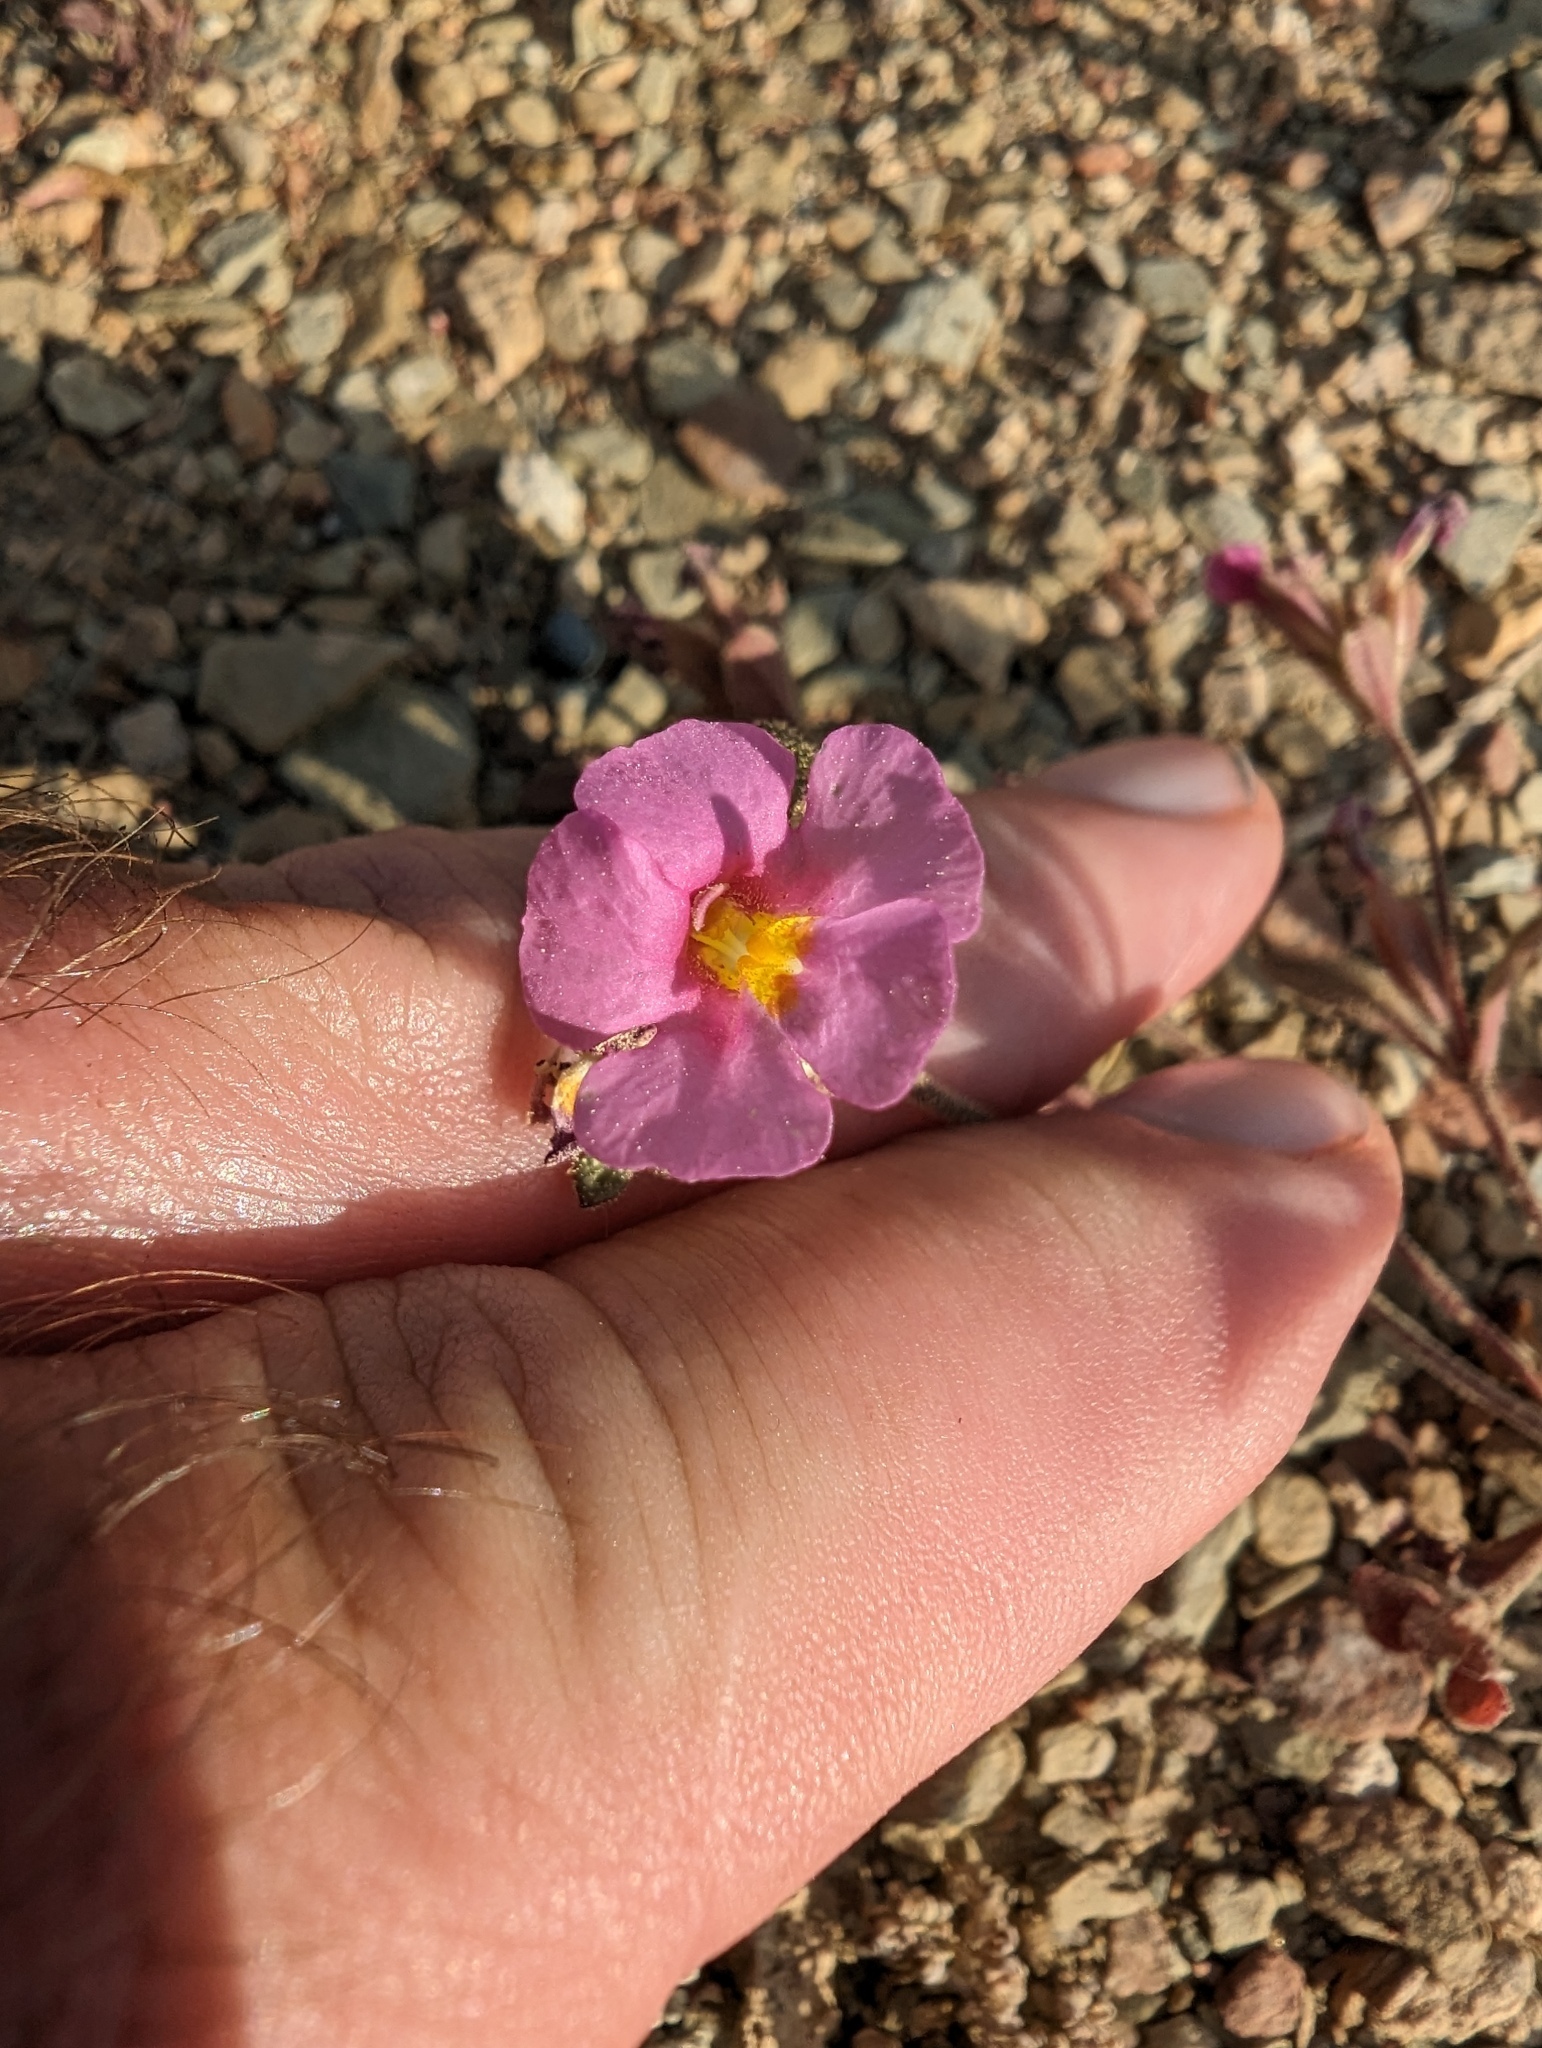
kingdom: Plantae
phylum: Tracheophyta
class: Magnoliopsida
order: Lamiales
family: Phrymaceae
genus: Diplacus
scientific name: Diplacus parryi
